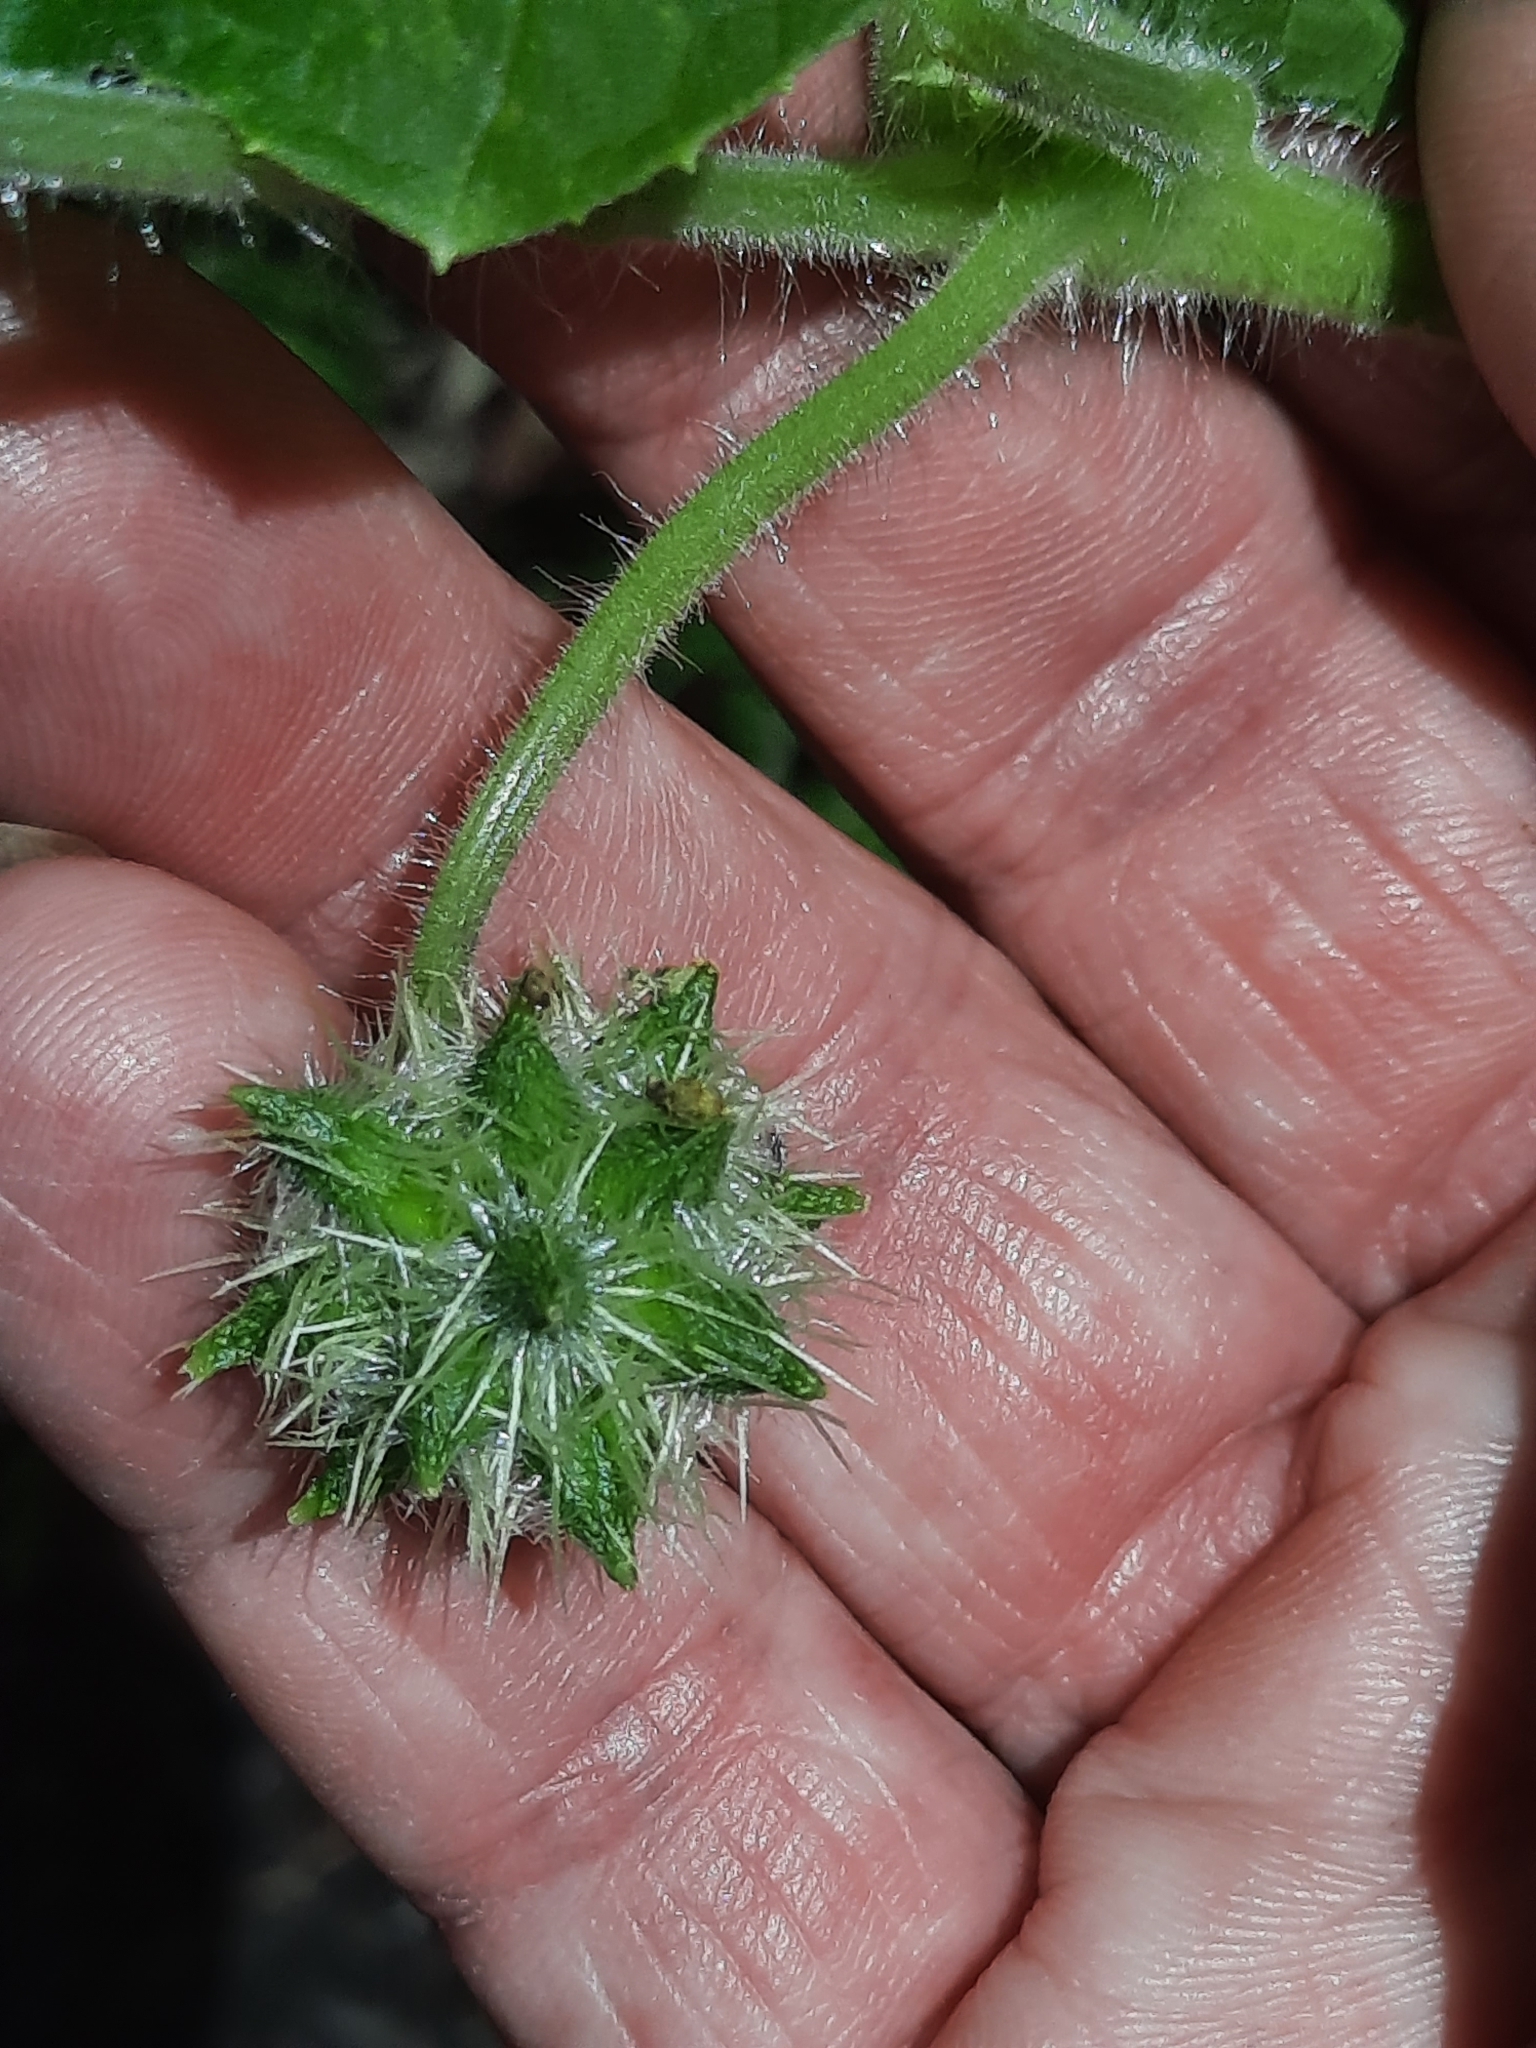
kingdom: Plantae
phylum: Tracheophyta
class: Magnoliopsida
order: Cucurbitales
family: Cucurbitaceae
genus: Sicyos
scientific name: Sicyos angulatus
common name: Angled burr cucumber
